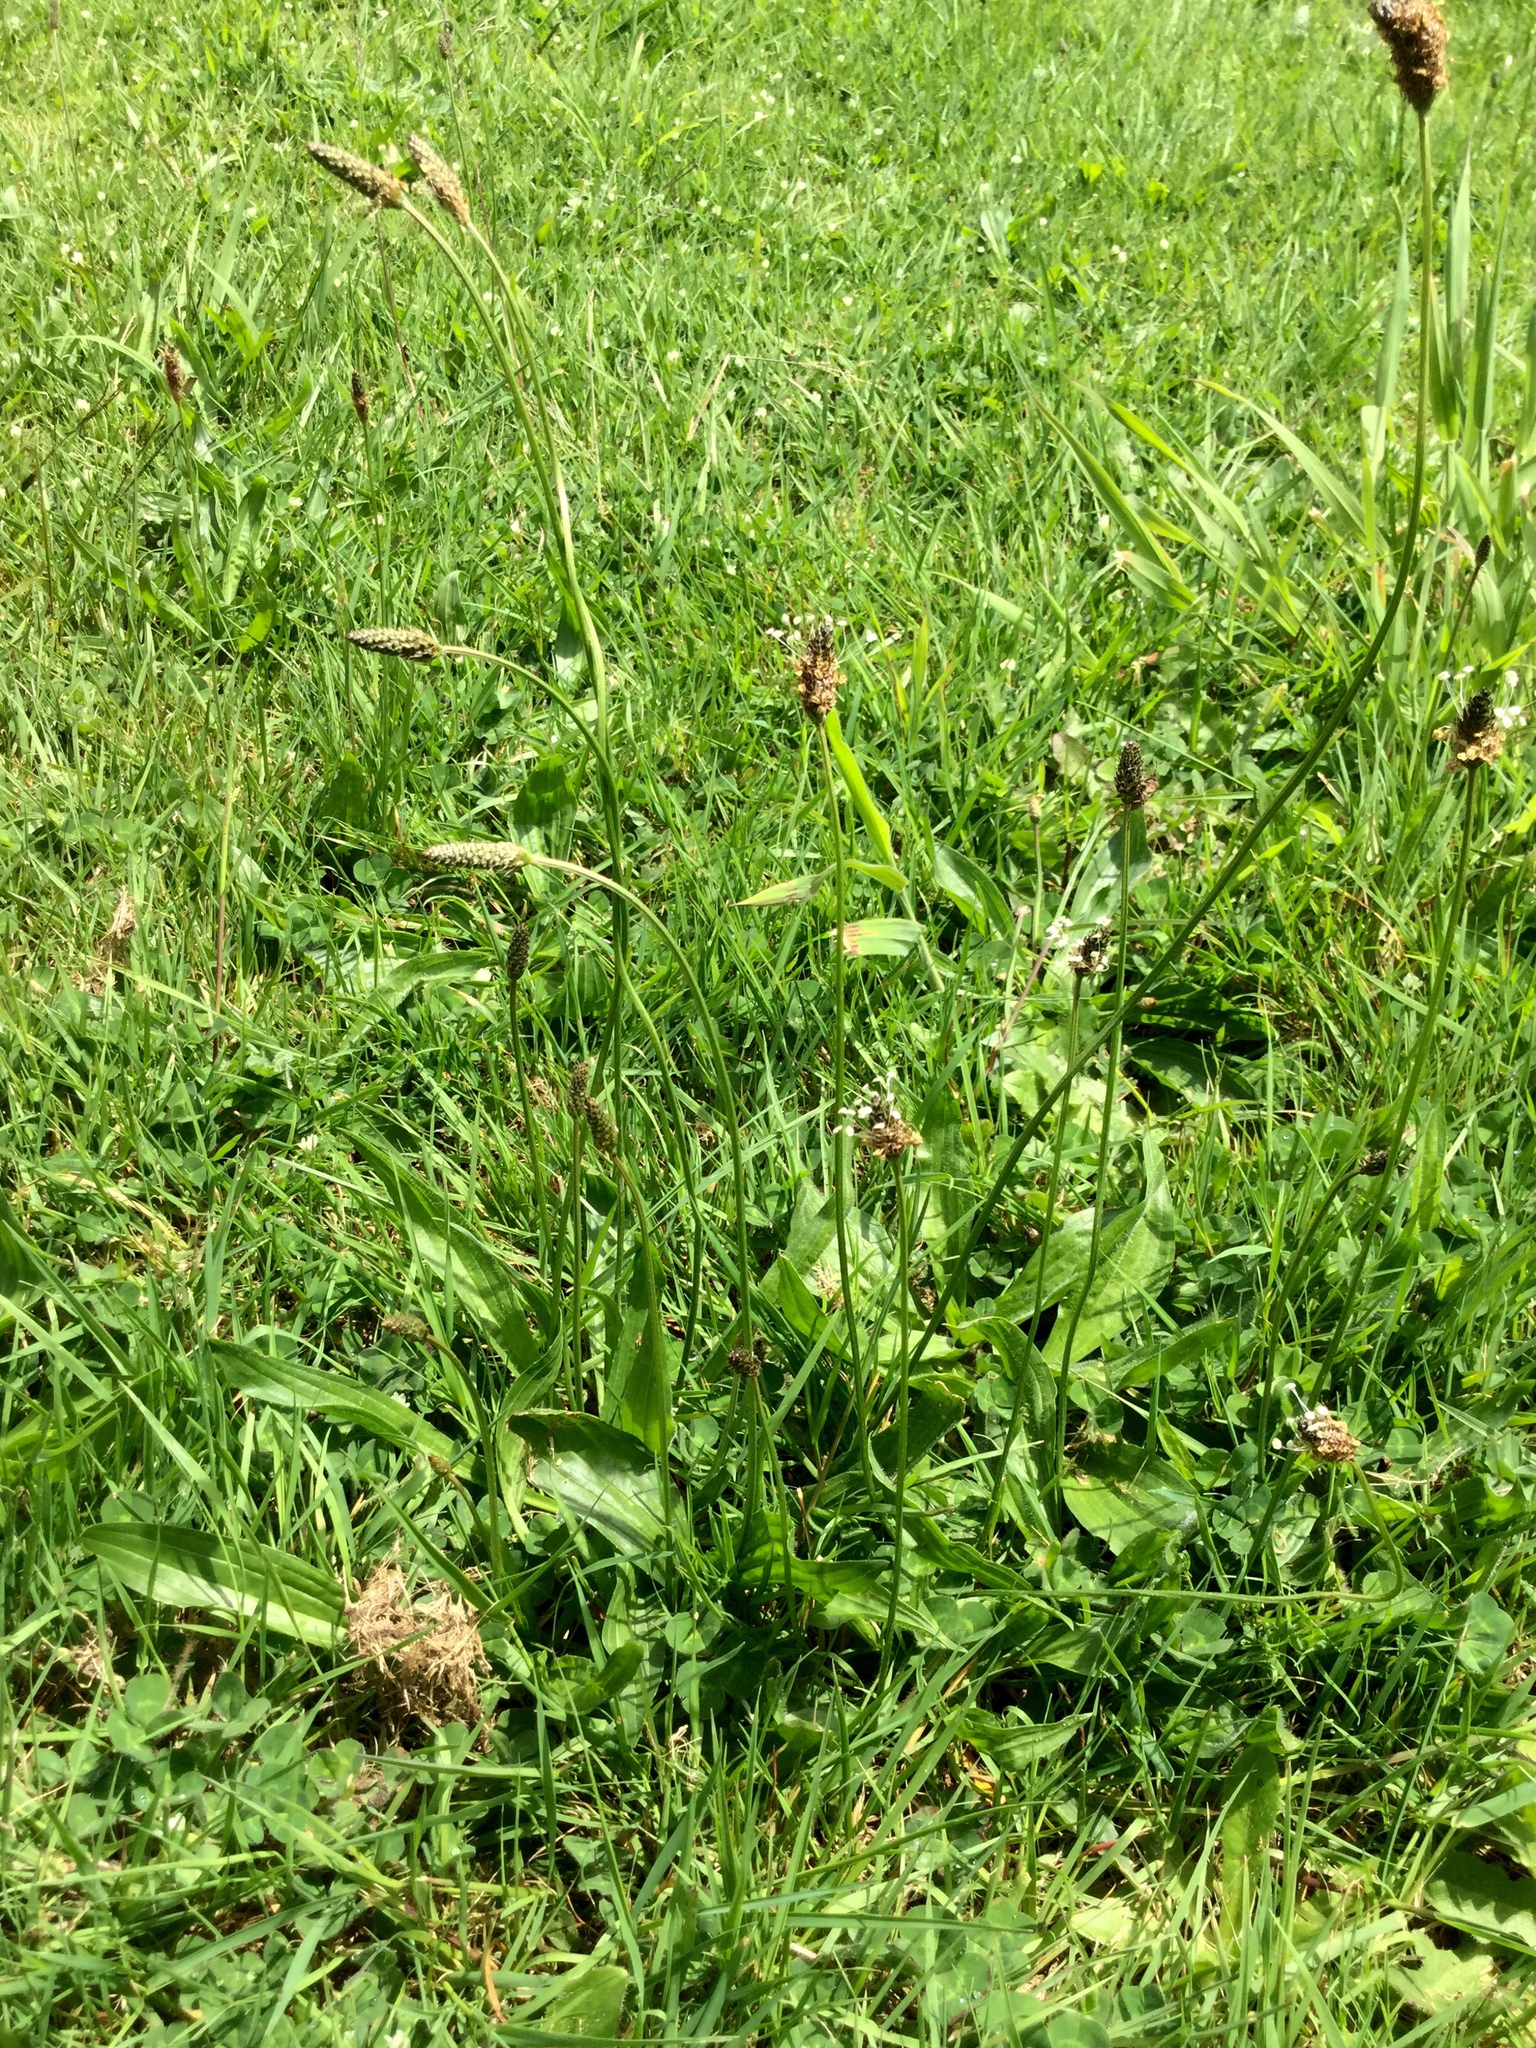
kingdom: Plantae
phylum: Tracheophyta
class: Magnoliopsida
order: Lamiales
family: Plantaginaceae
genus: Plantago
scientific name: Plantago lanceolata
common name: Ribwort plantain
